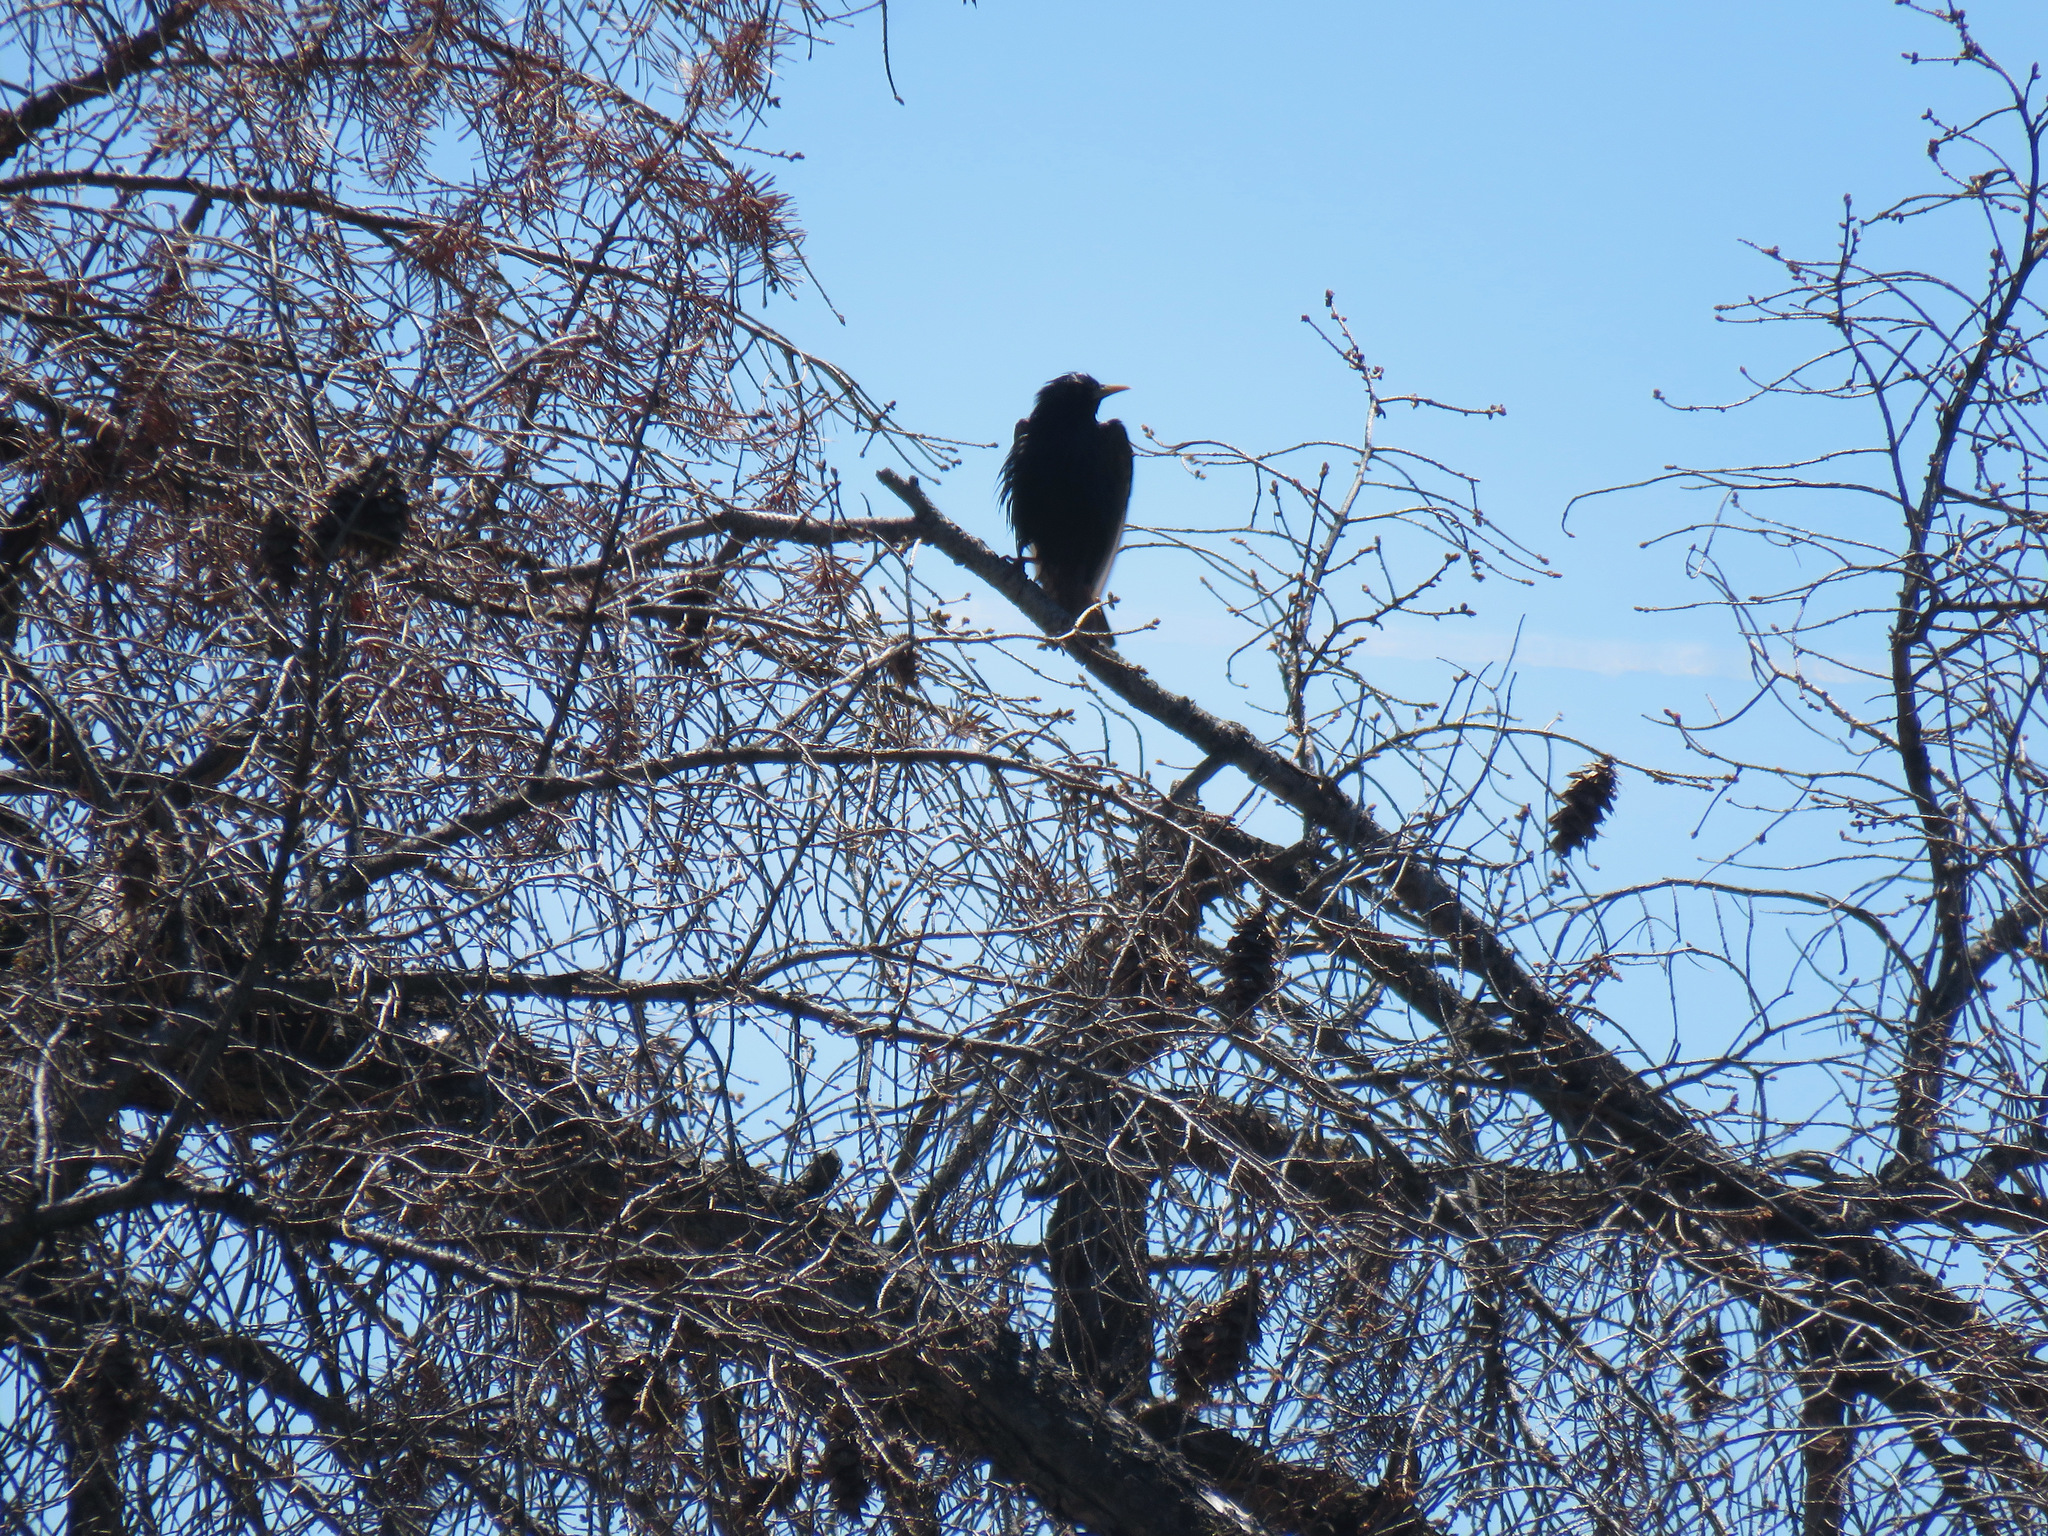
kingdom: Animalia
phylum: Chordata
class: Aves
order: Passeriformes
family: Sturnidae
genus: Sturnus
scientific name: Sturnus vulgaris
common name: Common starling
